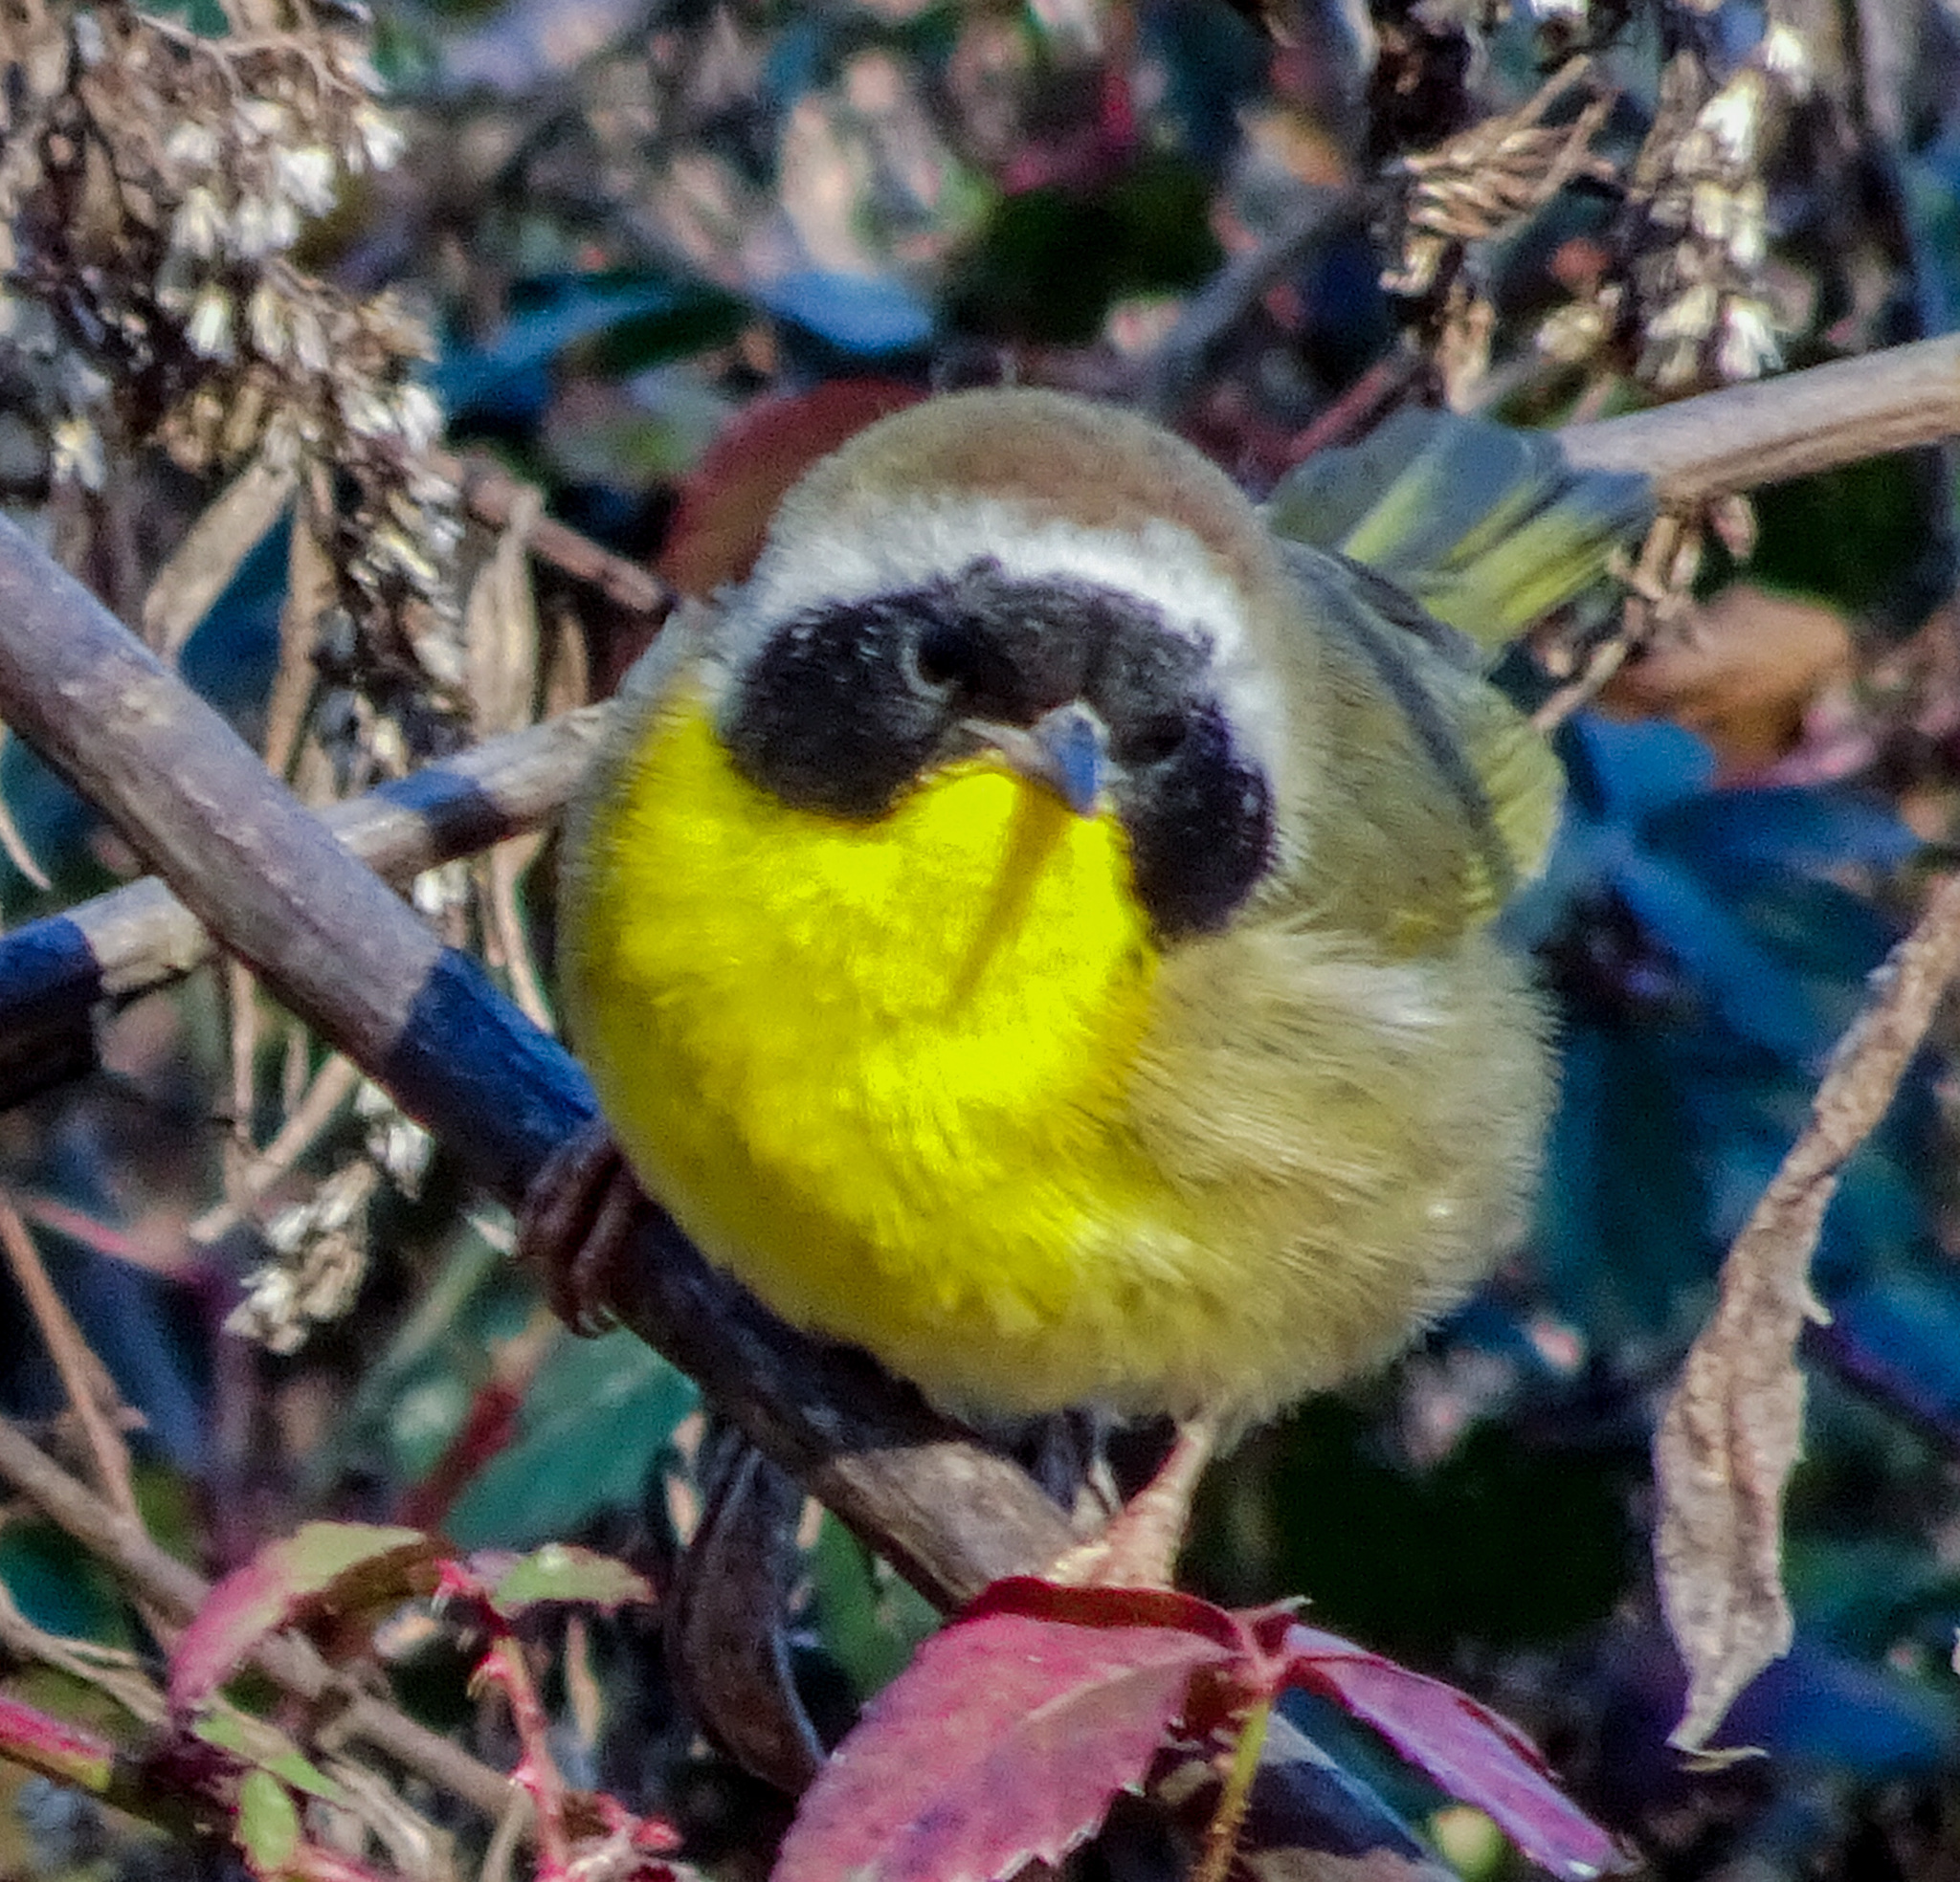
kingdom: Animalia
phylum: Chordata
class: Aves
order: Passeriformes
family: Parulidae
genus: Geothlypis
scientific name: Geothlypis trichas
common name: Common yellowthroat
